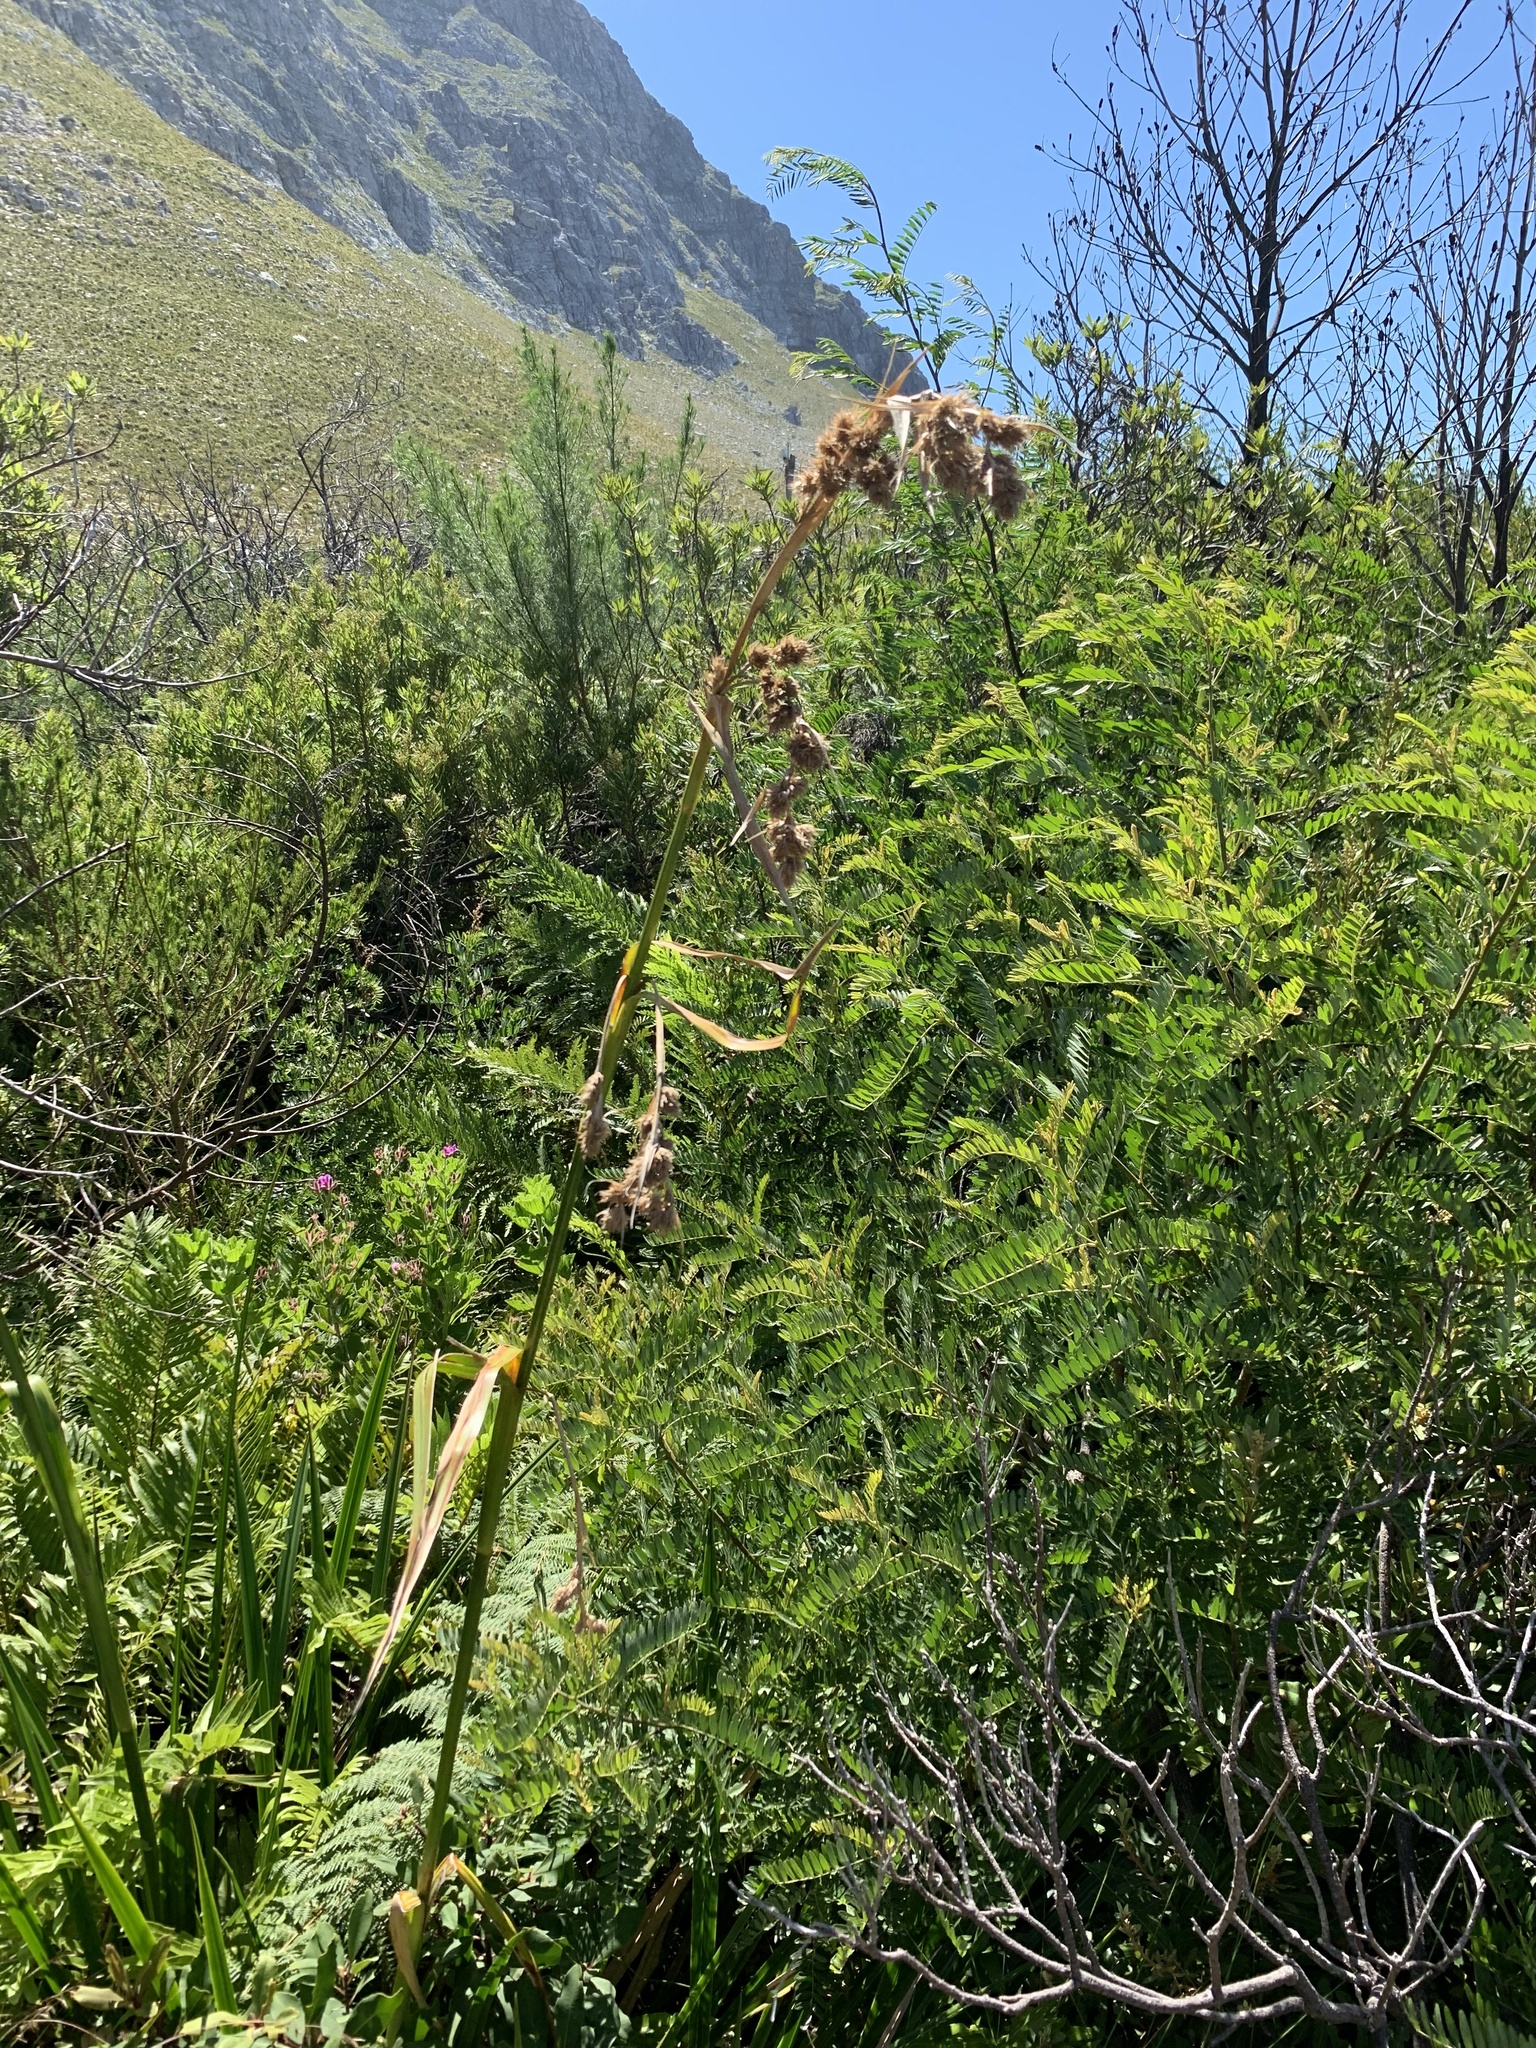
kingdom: Plantae
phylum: Tracheophyta
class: Liliopsida
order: Poales
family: Cyperaceae
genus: Carpha
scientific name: Carpha glomerata
